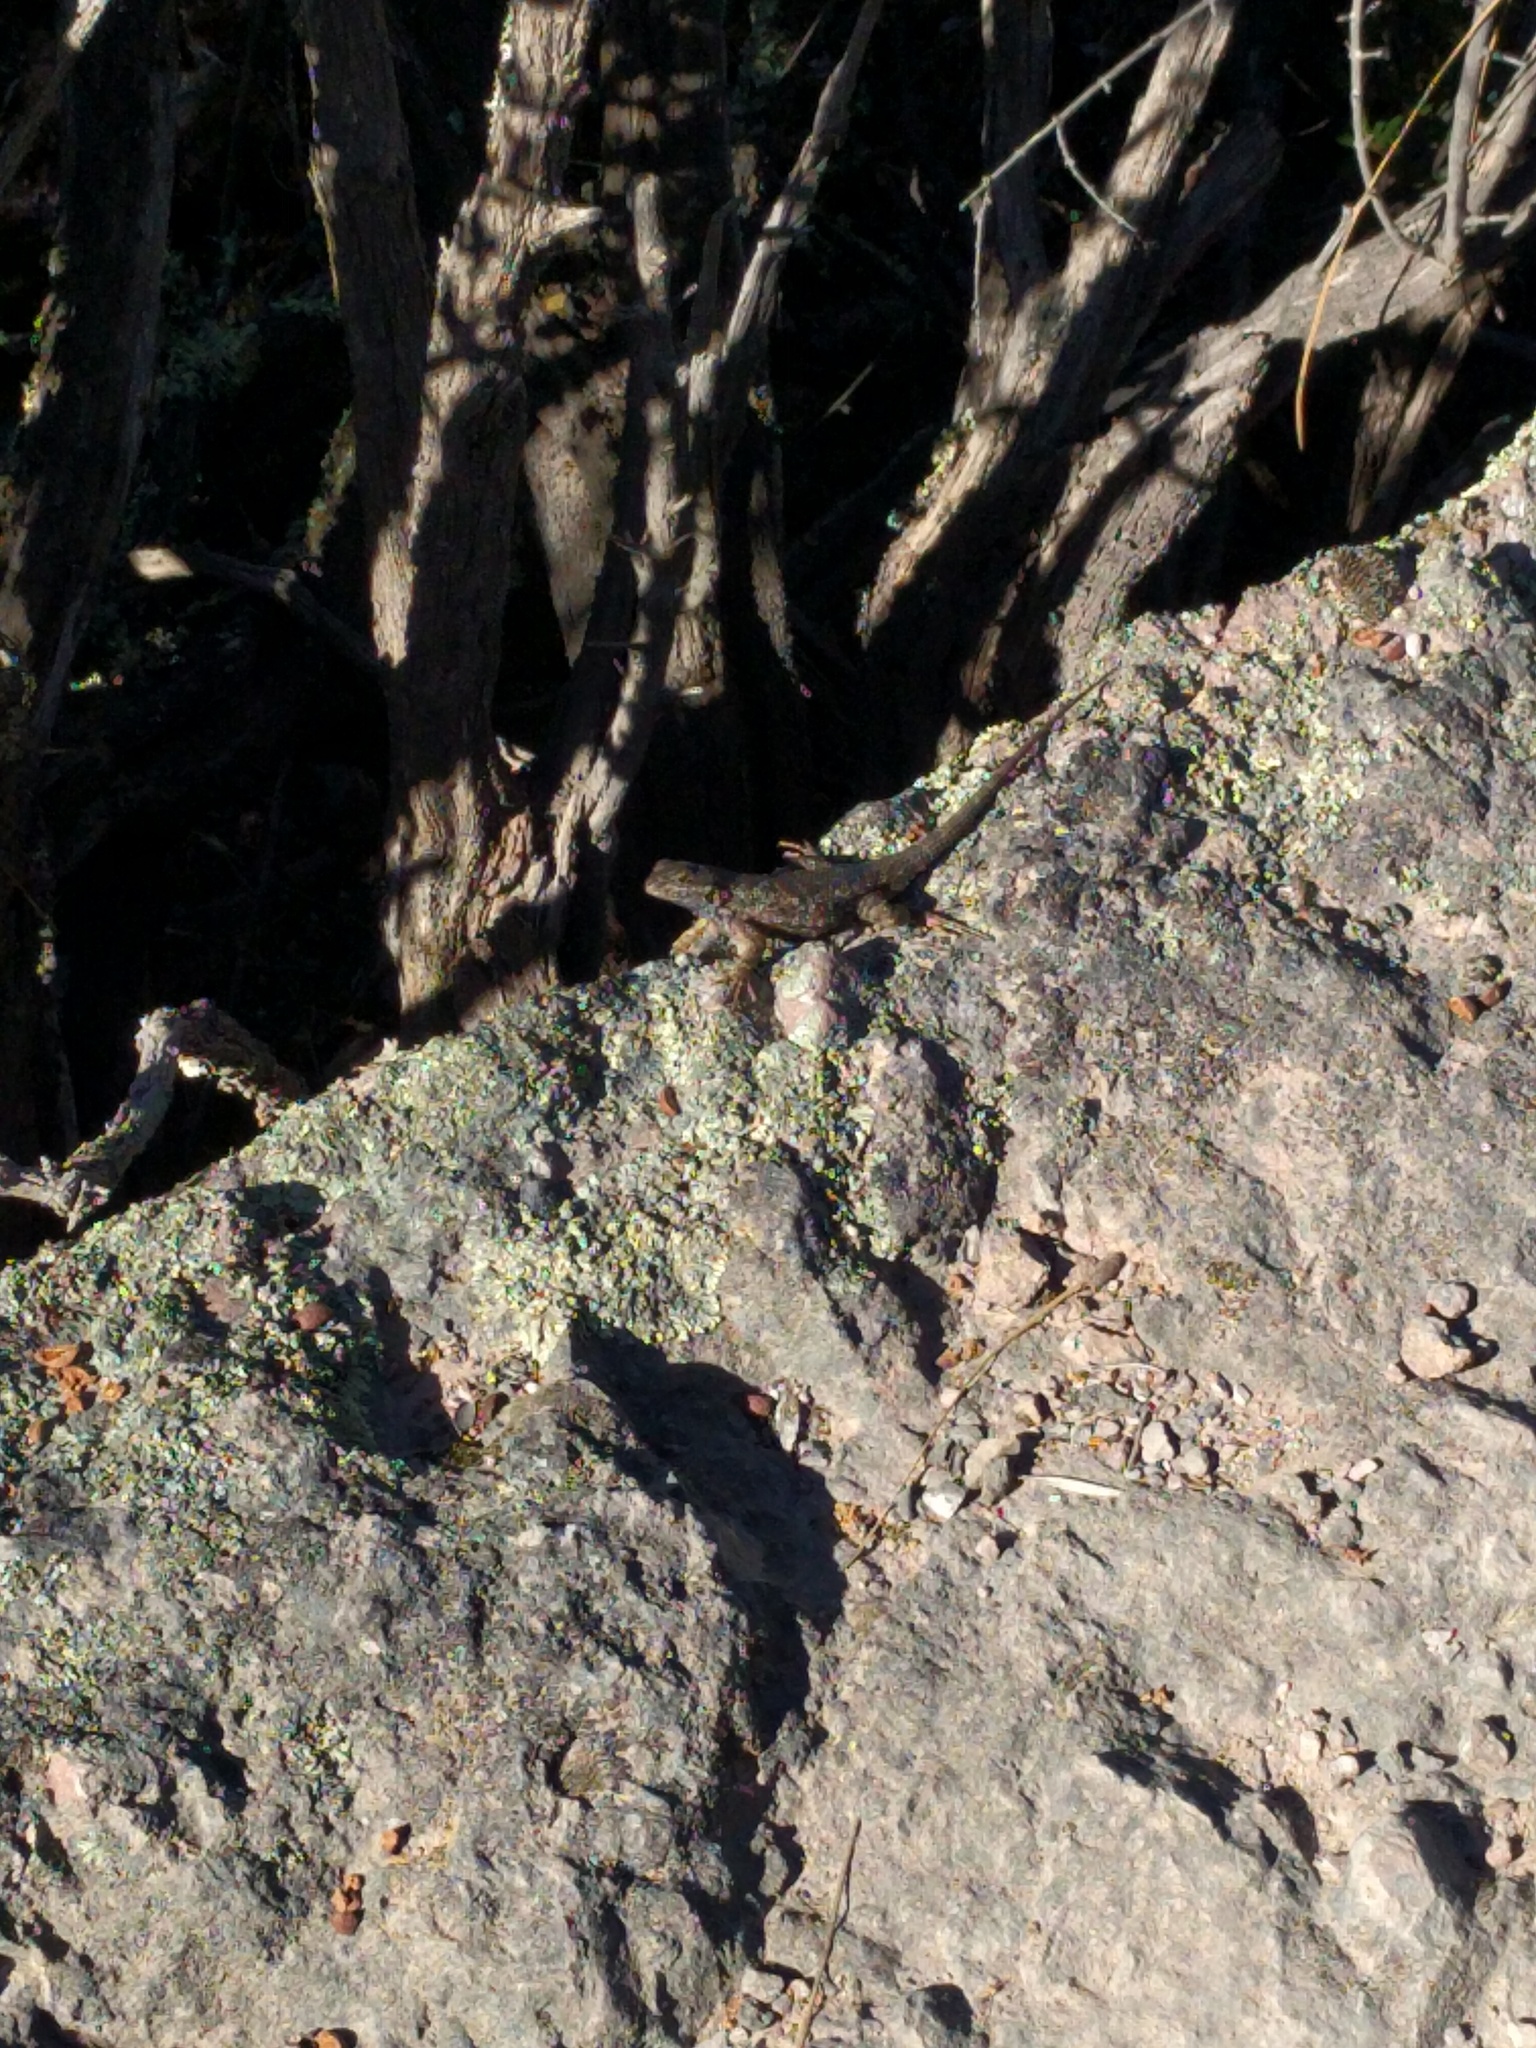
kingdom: Animalia
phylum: Chordata
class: Squamata
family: Phrynosomatidae
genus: Sceloporus
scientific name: Sceloporus occidentalis
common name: Western fence lizard
